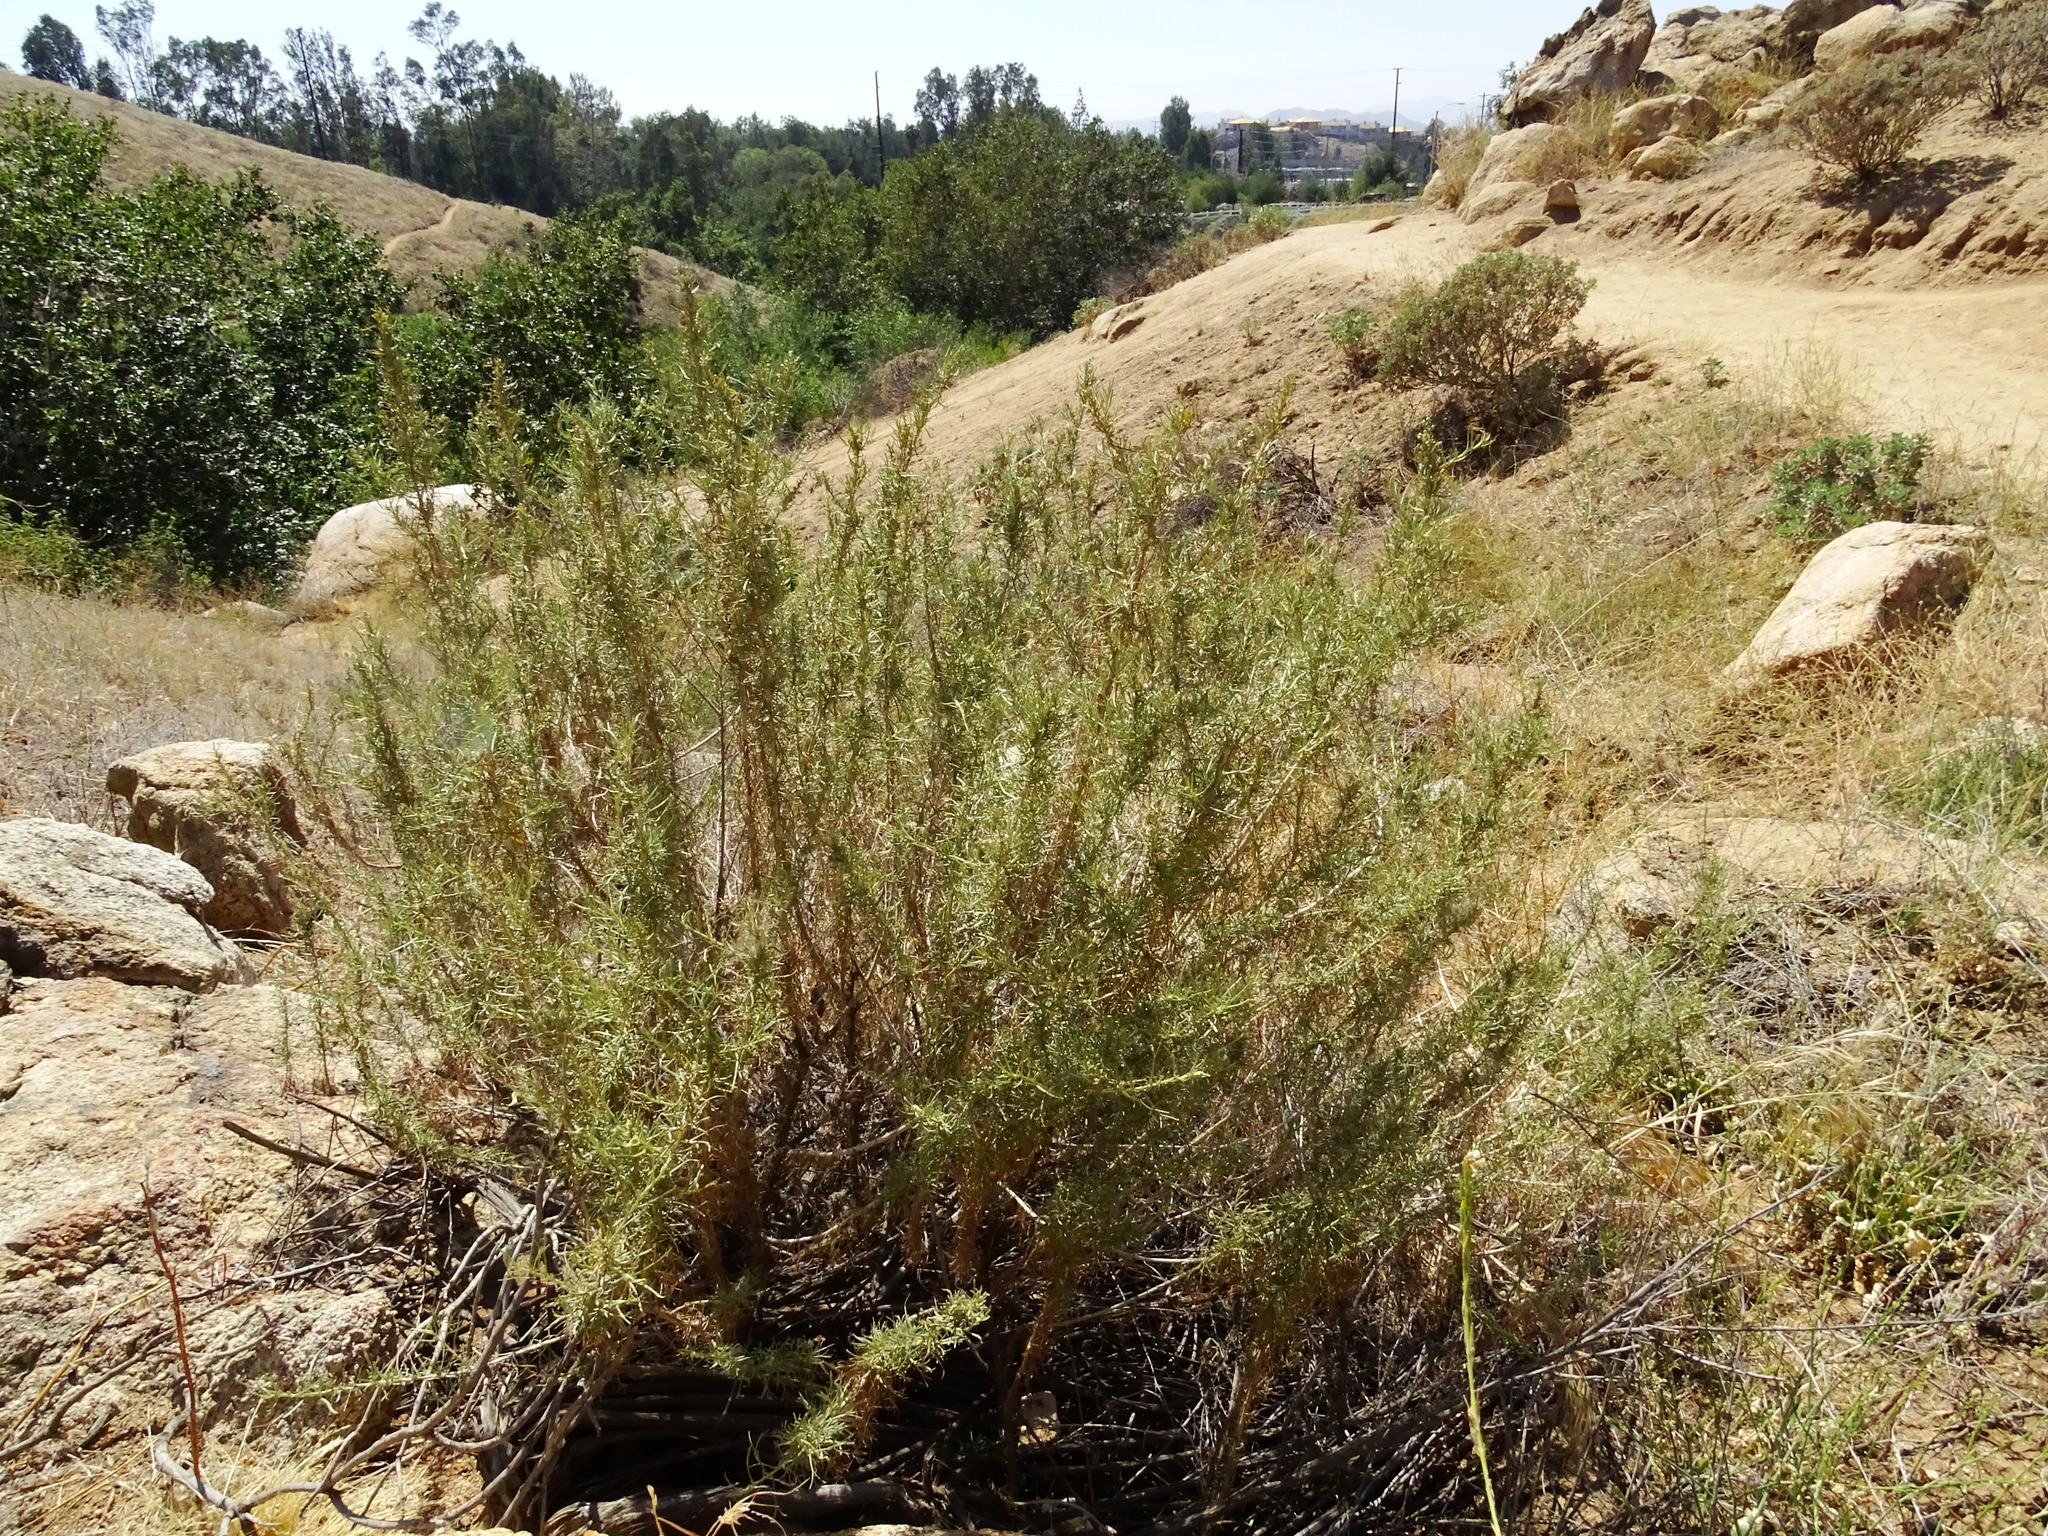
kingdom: Plantae
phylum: Tracheophyta
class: Magnoliopsida
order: Asterales
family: Asteraceae
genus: Artemisia
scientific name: Artemisia californica
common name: California sagebrush
